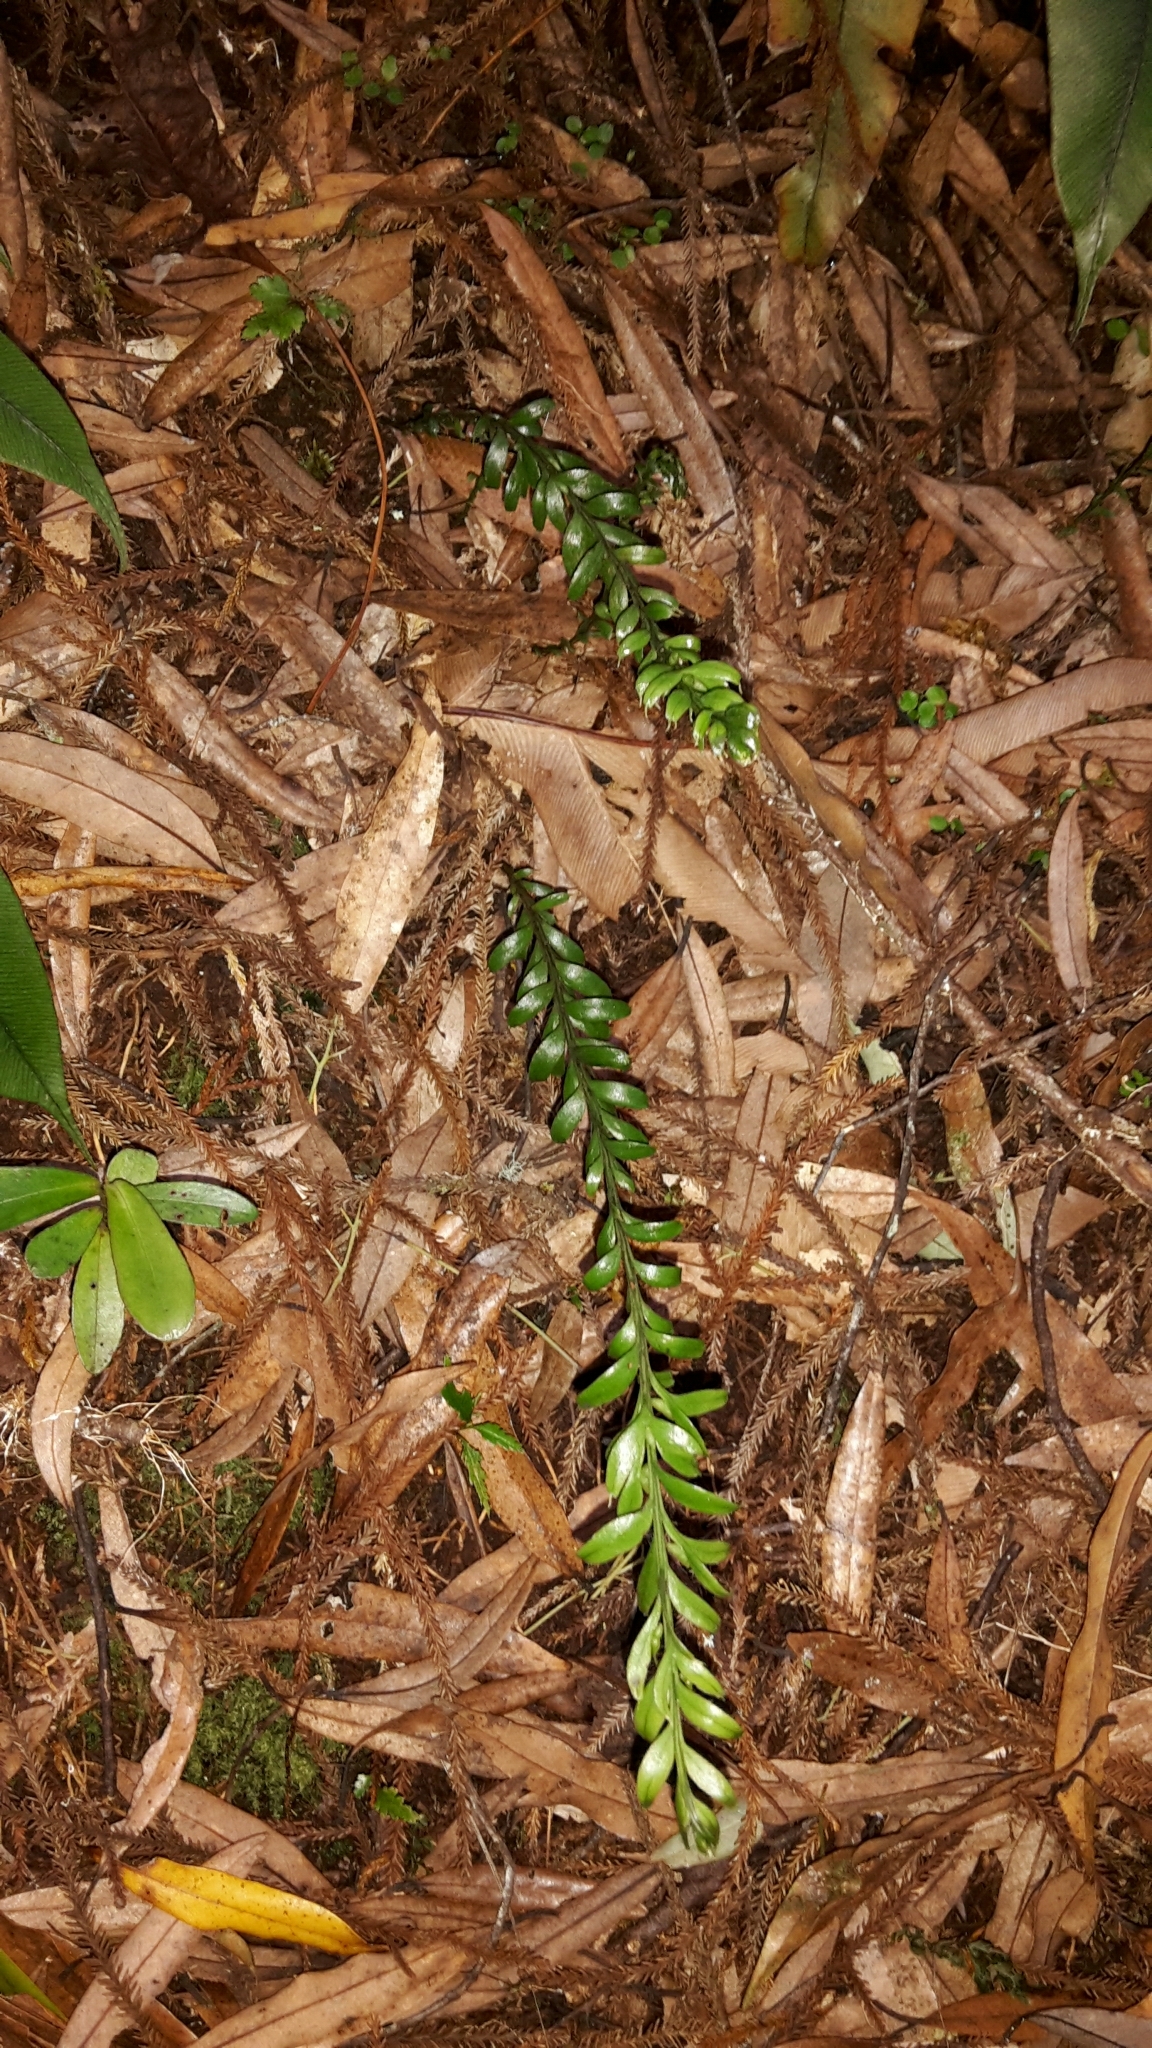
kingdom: Plantae
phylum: Tracheophyta
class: Polypodiopsida
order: Psilotales
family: Psilotaceae
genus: Tmesipteris
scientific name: Tmesipteris tannensis
